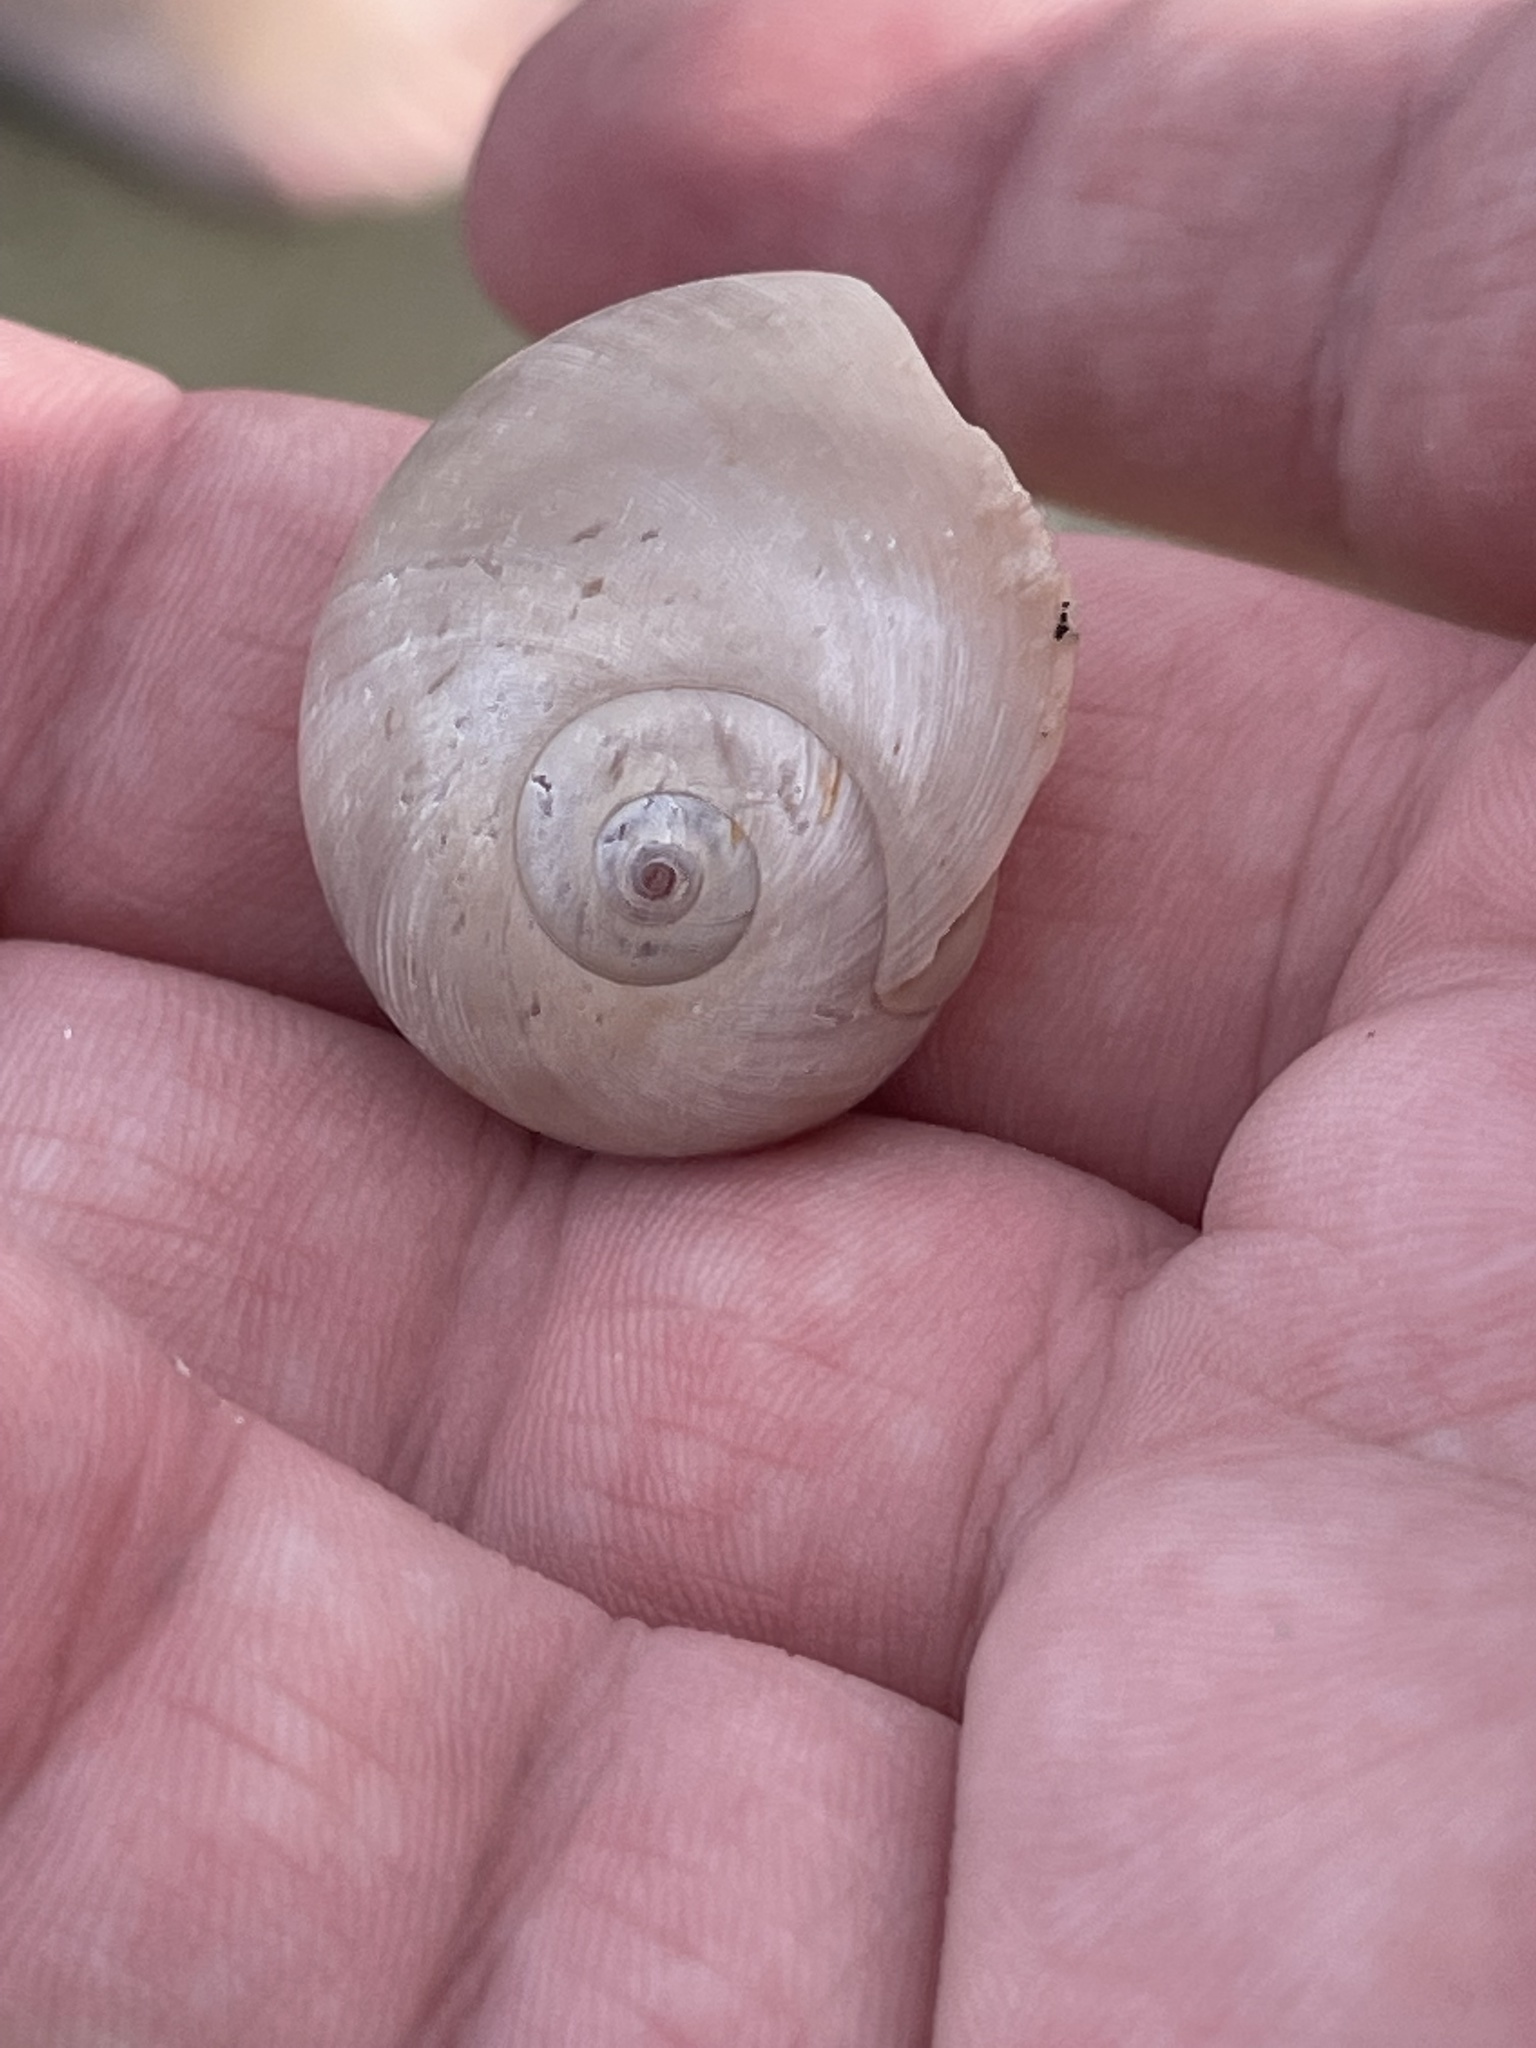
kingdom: Animalia
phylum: Mollusca
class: Gastropoda
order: Littorinimorpha
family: Naticidae
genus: Neverita
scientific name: Neverita duplicata
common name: Lobed moonsnail
